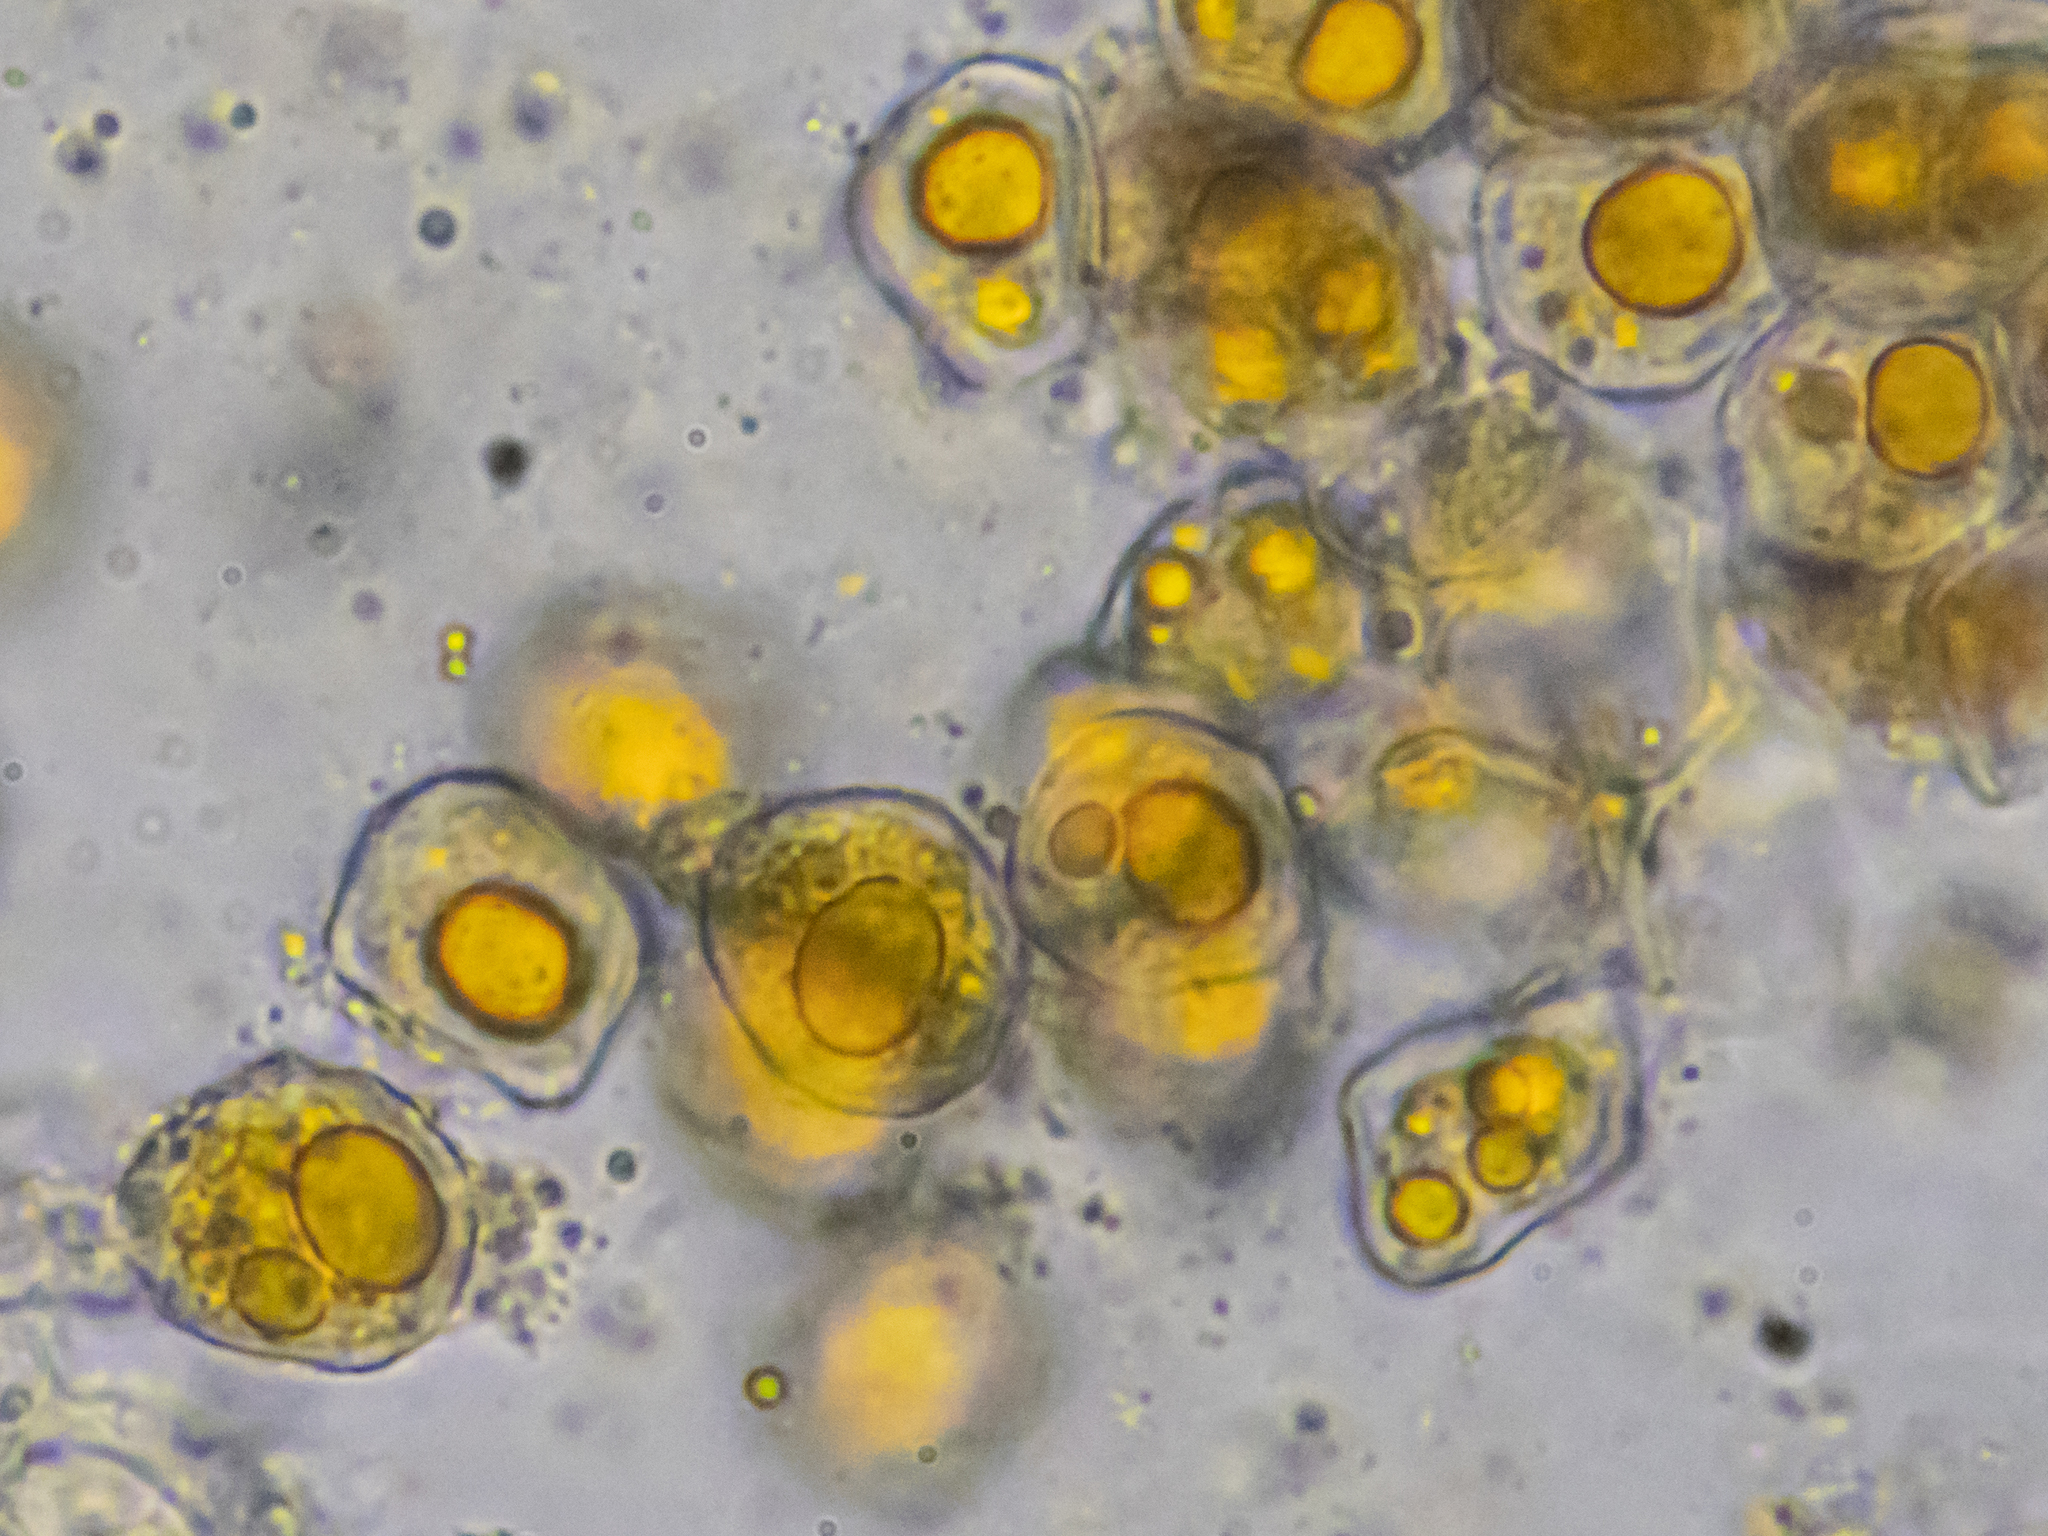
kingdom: Fungi
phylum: Basidiomycota
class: Pucciniomycetes
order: Pucciniales
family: Pucciniaceae
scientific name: Pucciniaceae
